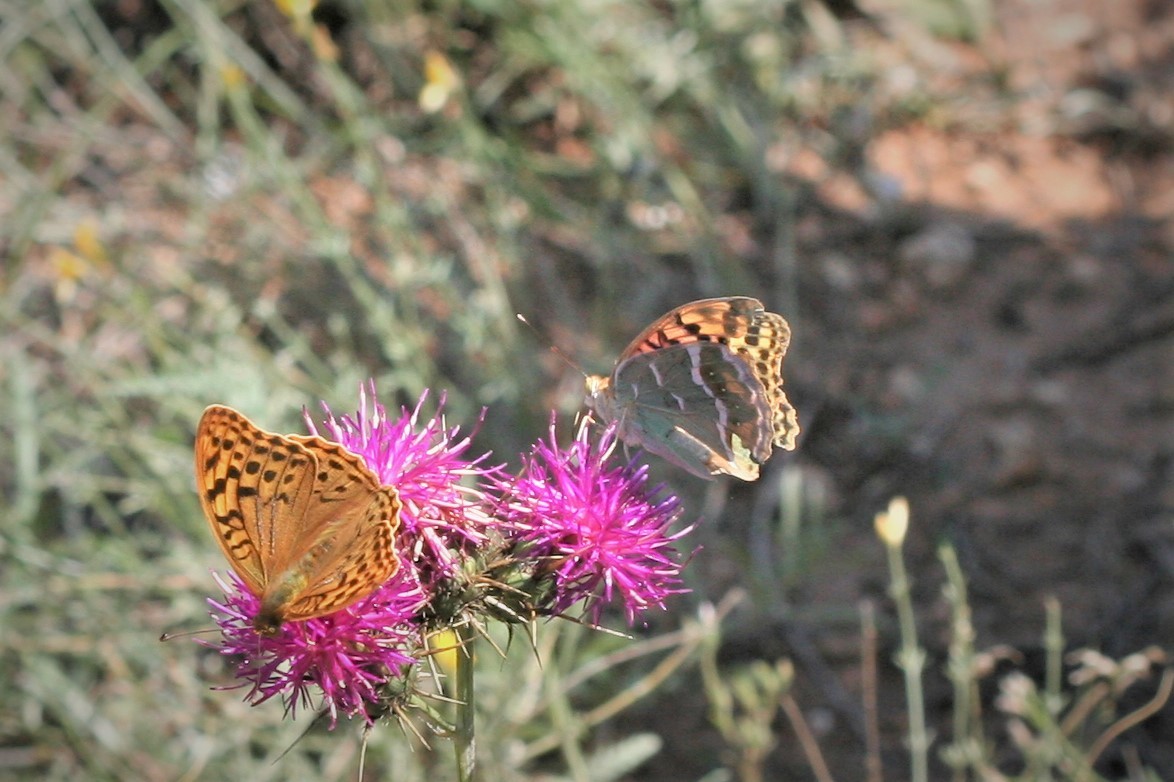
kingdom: Animalia
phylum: Arthropoda
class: Insecta
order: Lepidoptera
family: Nymphalidae
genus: Damora
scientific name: Damora pandora
